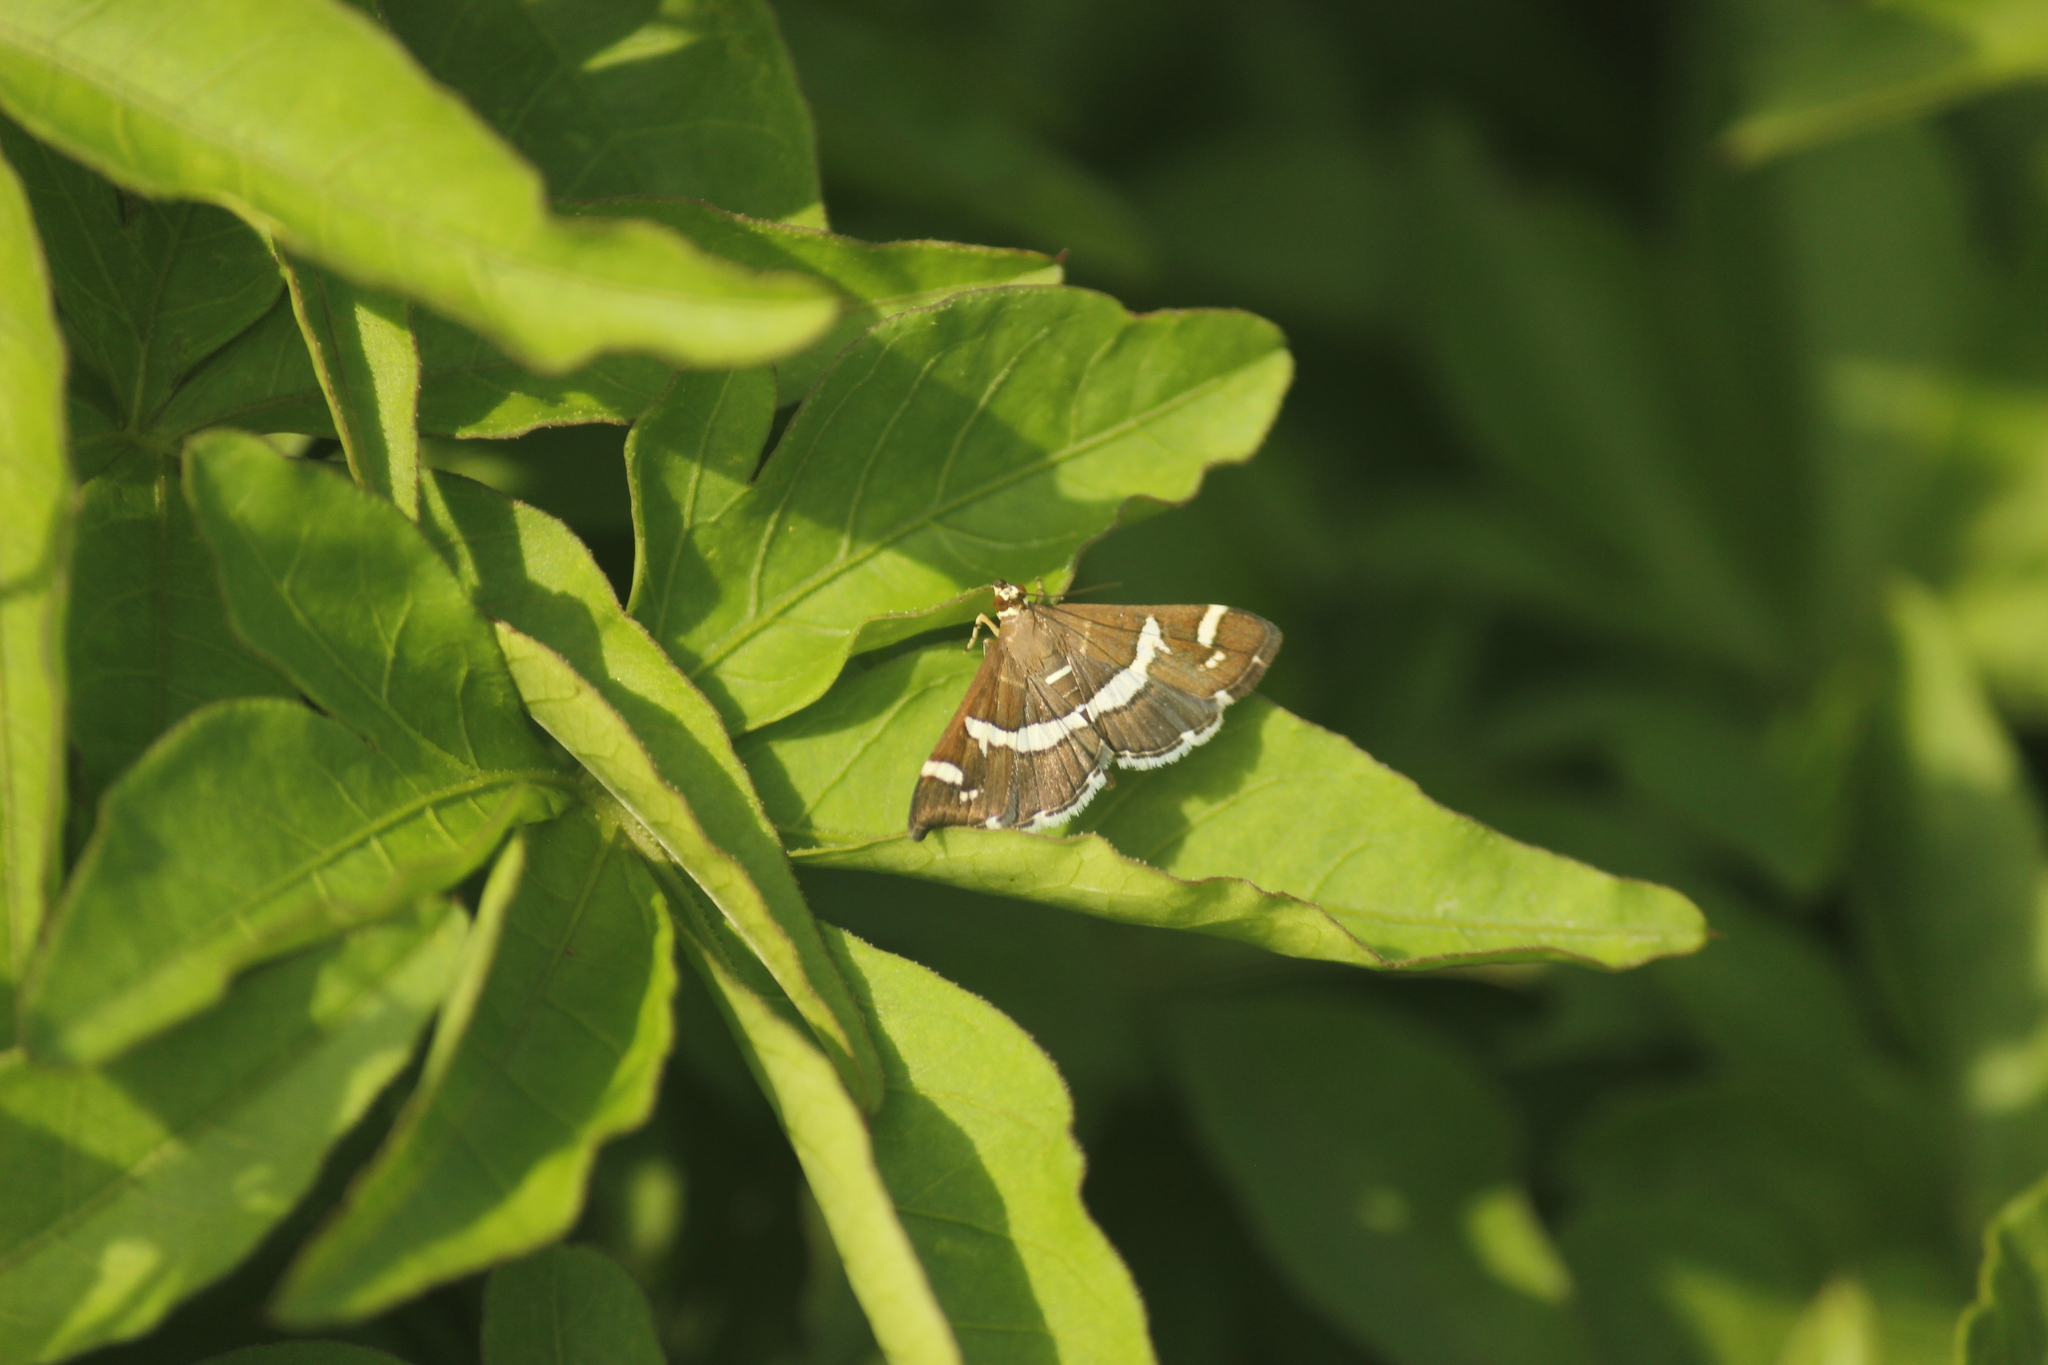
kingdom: Animalia
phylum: Arthropoda
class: Insecta
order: Lepidoptera
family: Crambidae
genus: Spoladea
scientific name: Spoladea recurvalis
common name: Beet webworm moth
